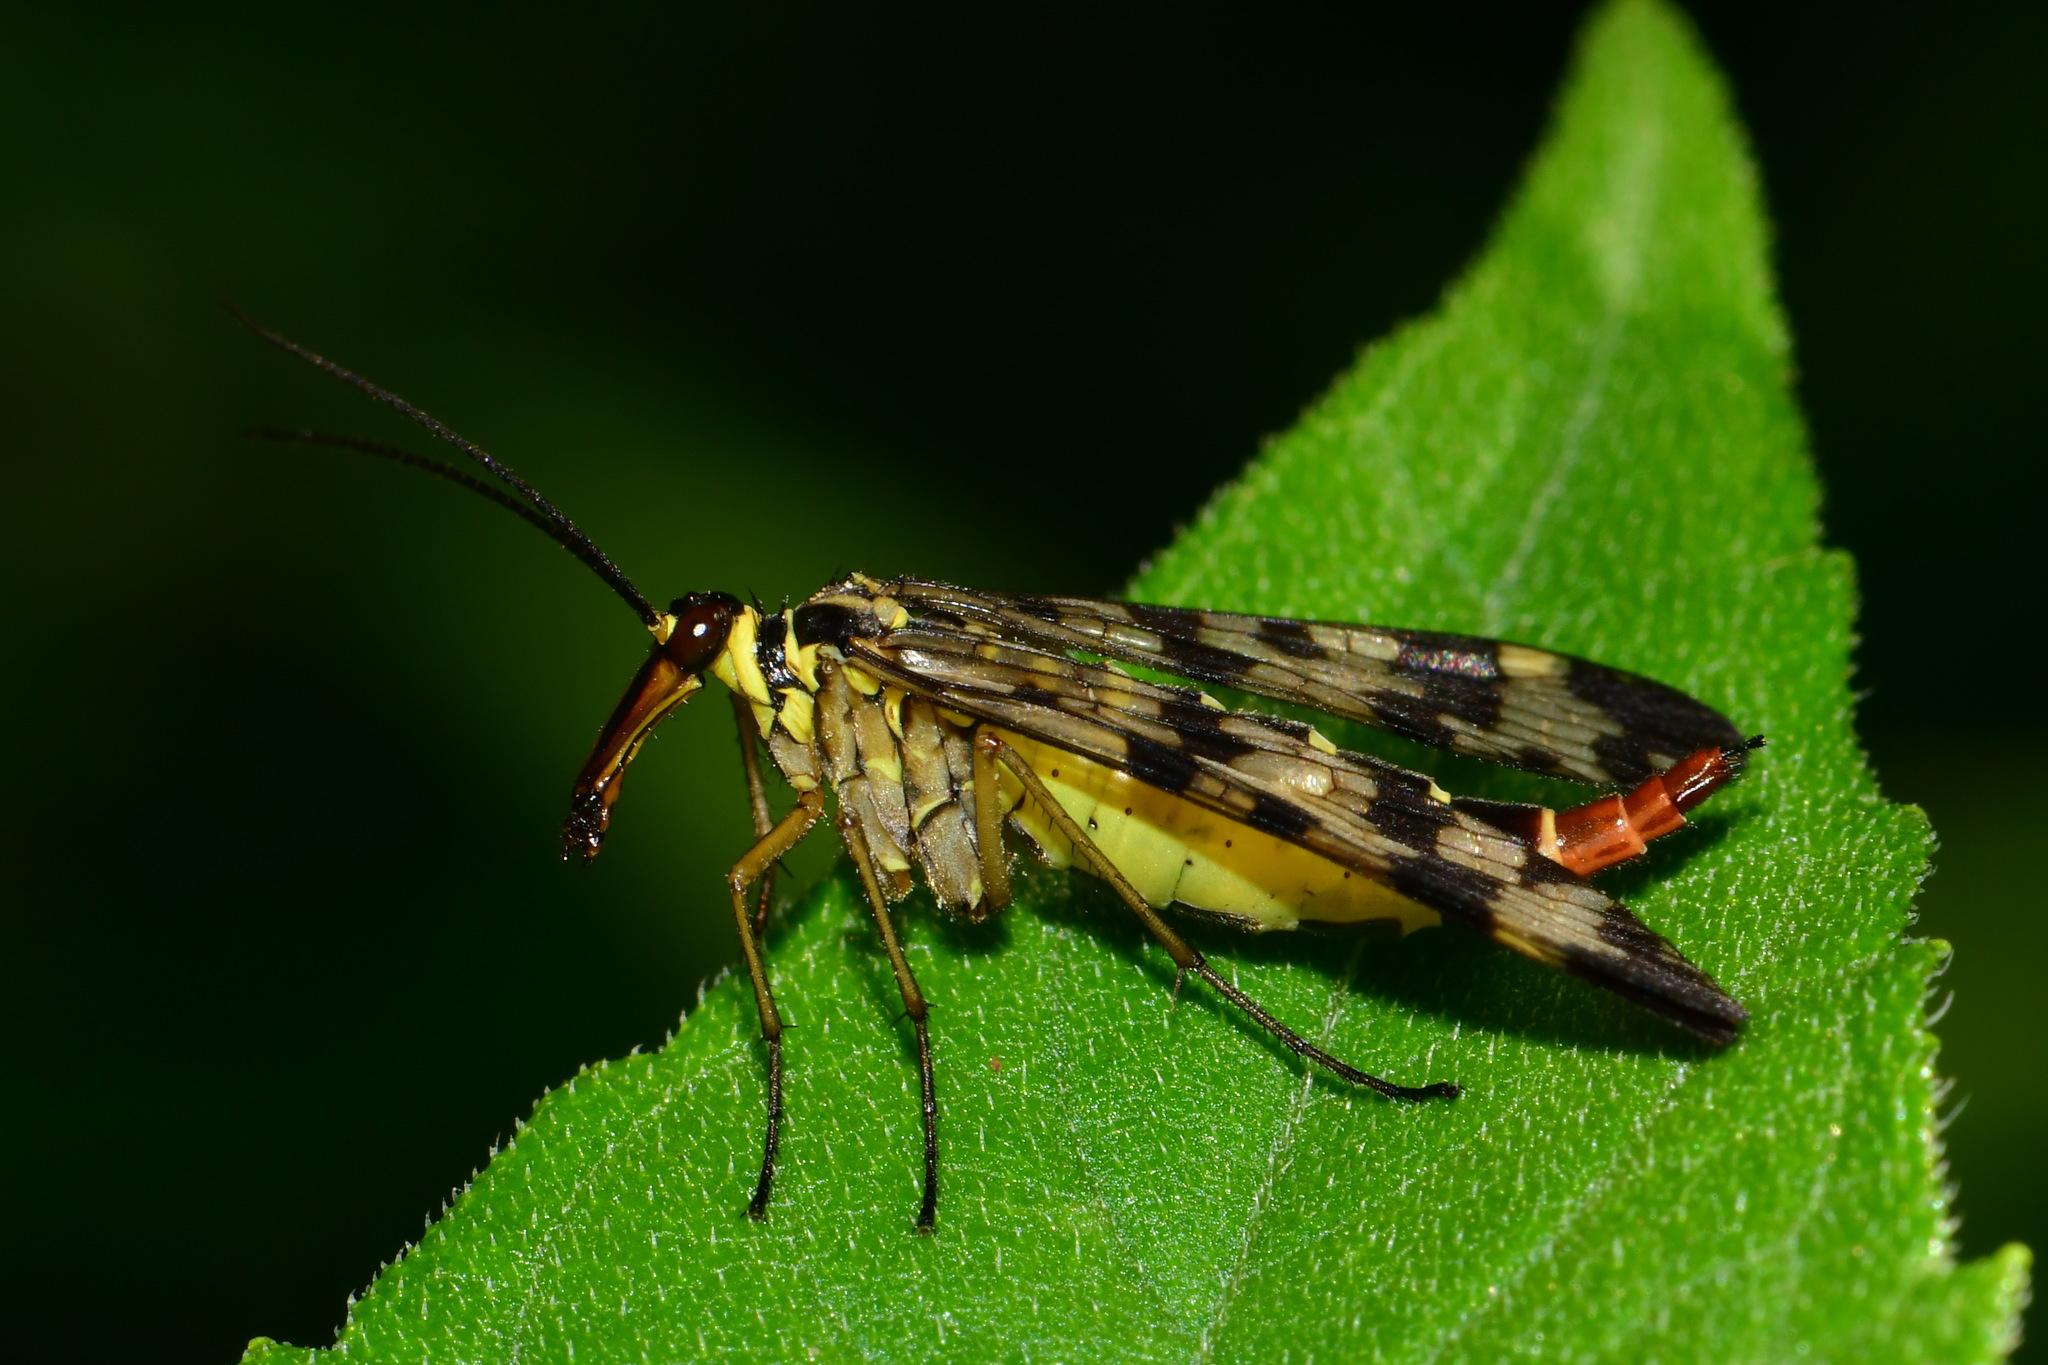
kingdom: Animalia
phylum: Arthropoda
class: Insecta
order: Mecoptera
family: Panorpidae
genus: Panorpa
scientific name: Panorpa communis
